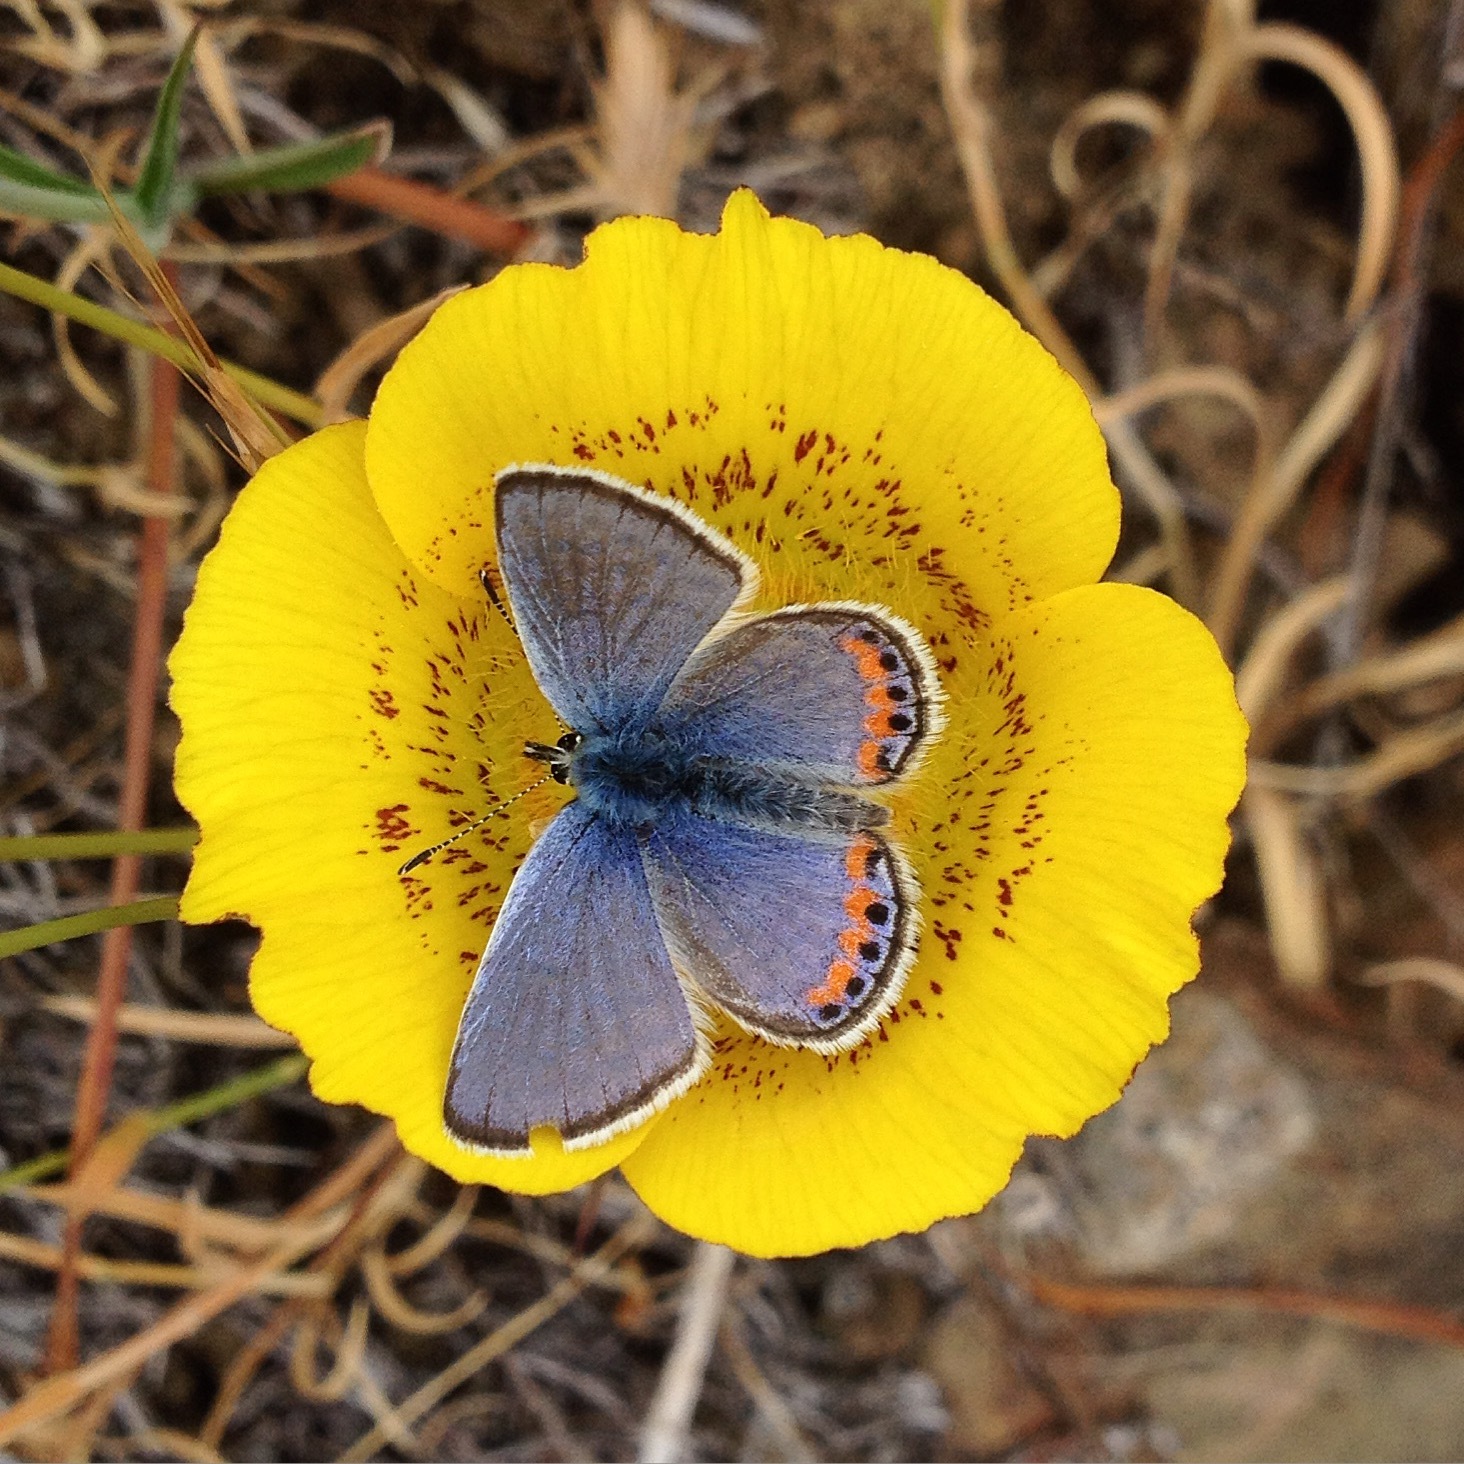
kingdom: Animalia
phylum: Arthropoda
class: Insecta
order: Lepidoptera
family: Lycaenidae
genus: Icaricia
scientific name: Icaricia acmon
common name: Acmon blue
